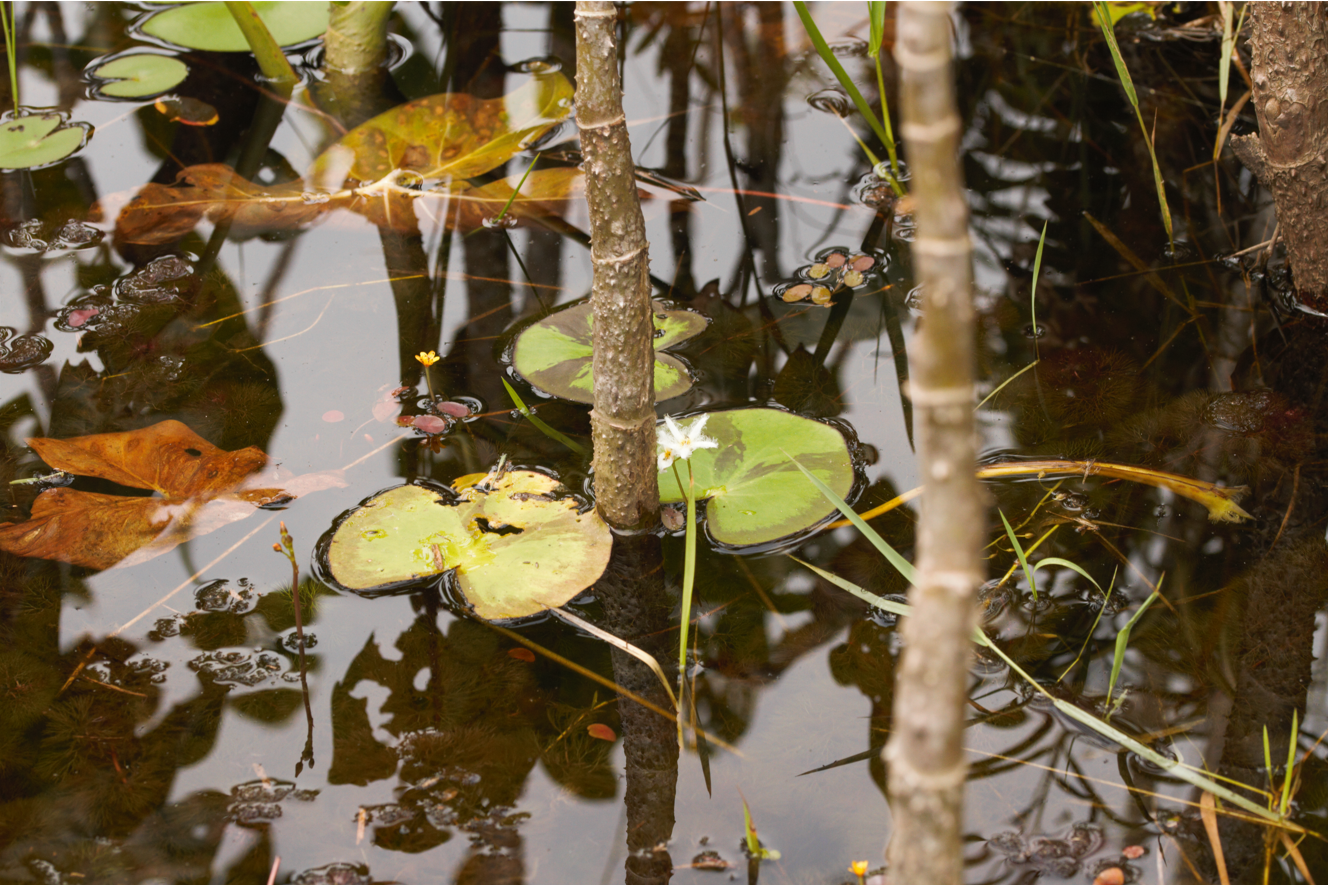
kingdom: Plantae
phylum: Tracheophyta
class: Magnoliopsida
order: Asterales
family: Menyanthaceae
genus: Nymphoides
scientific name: Nymphoides humboldtiana
